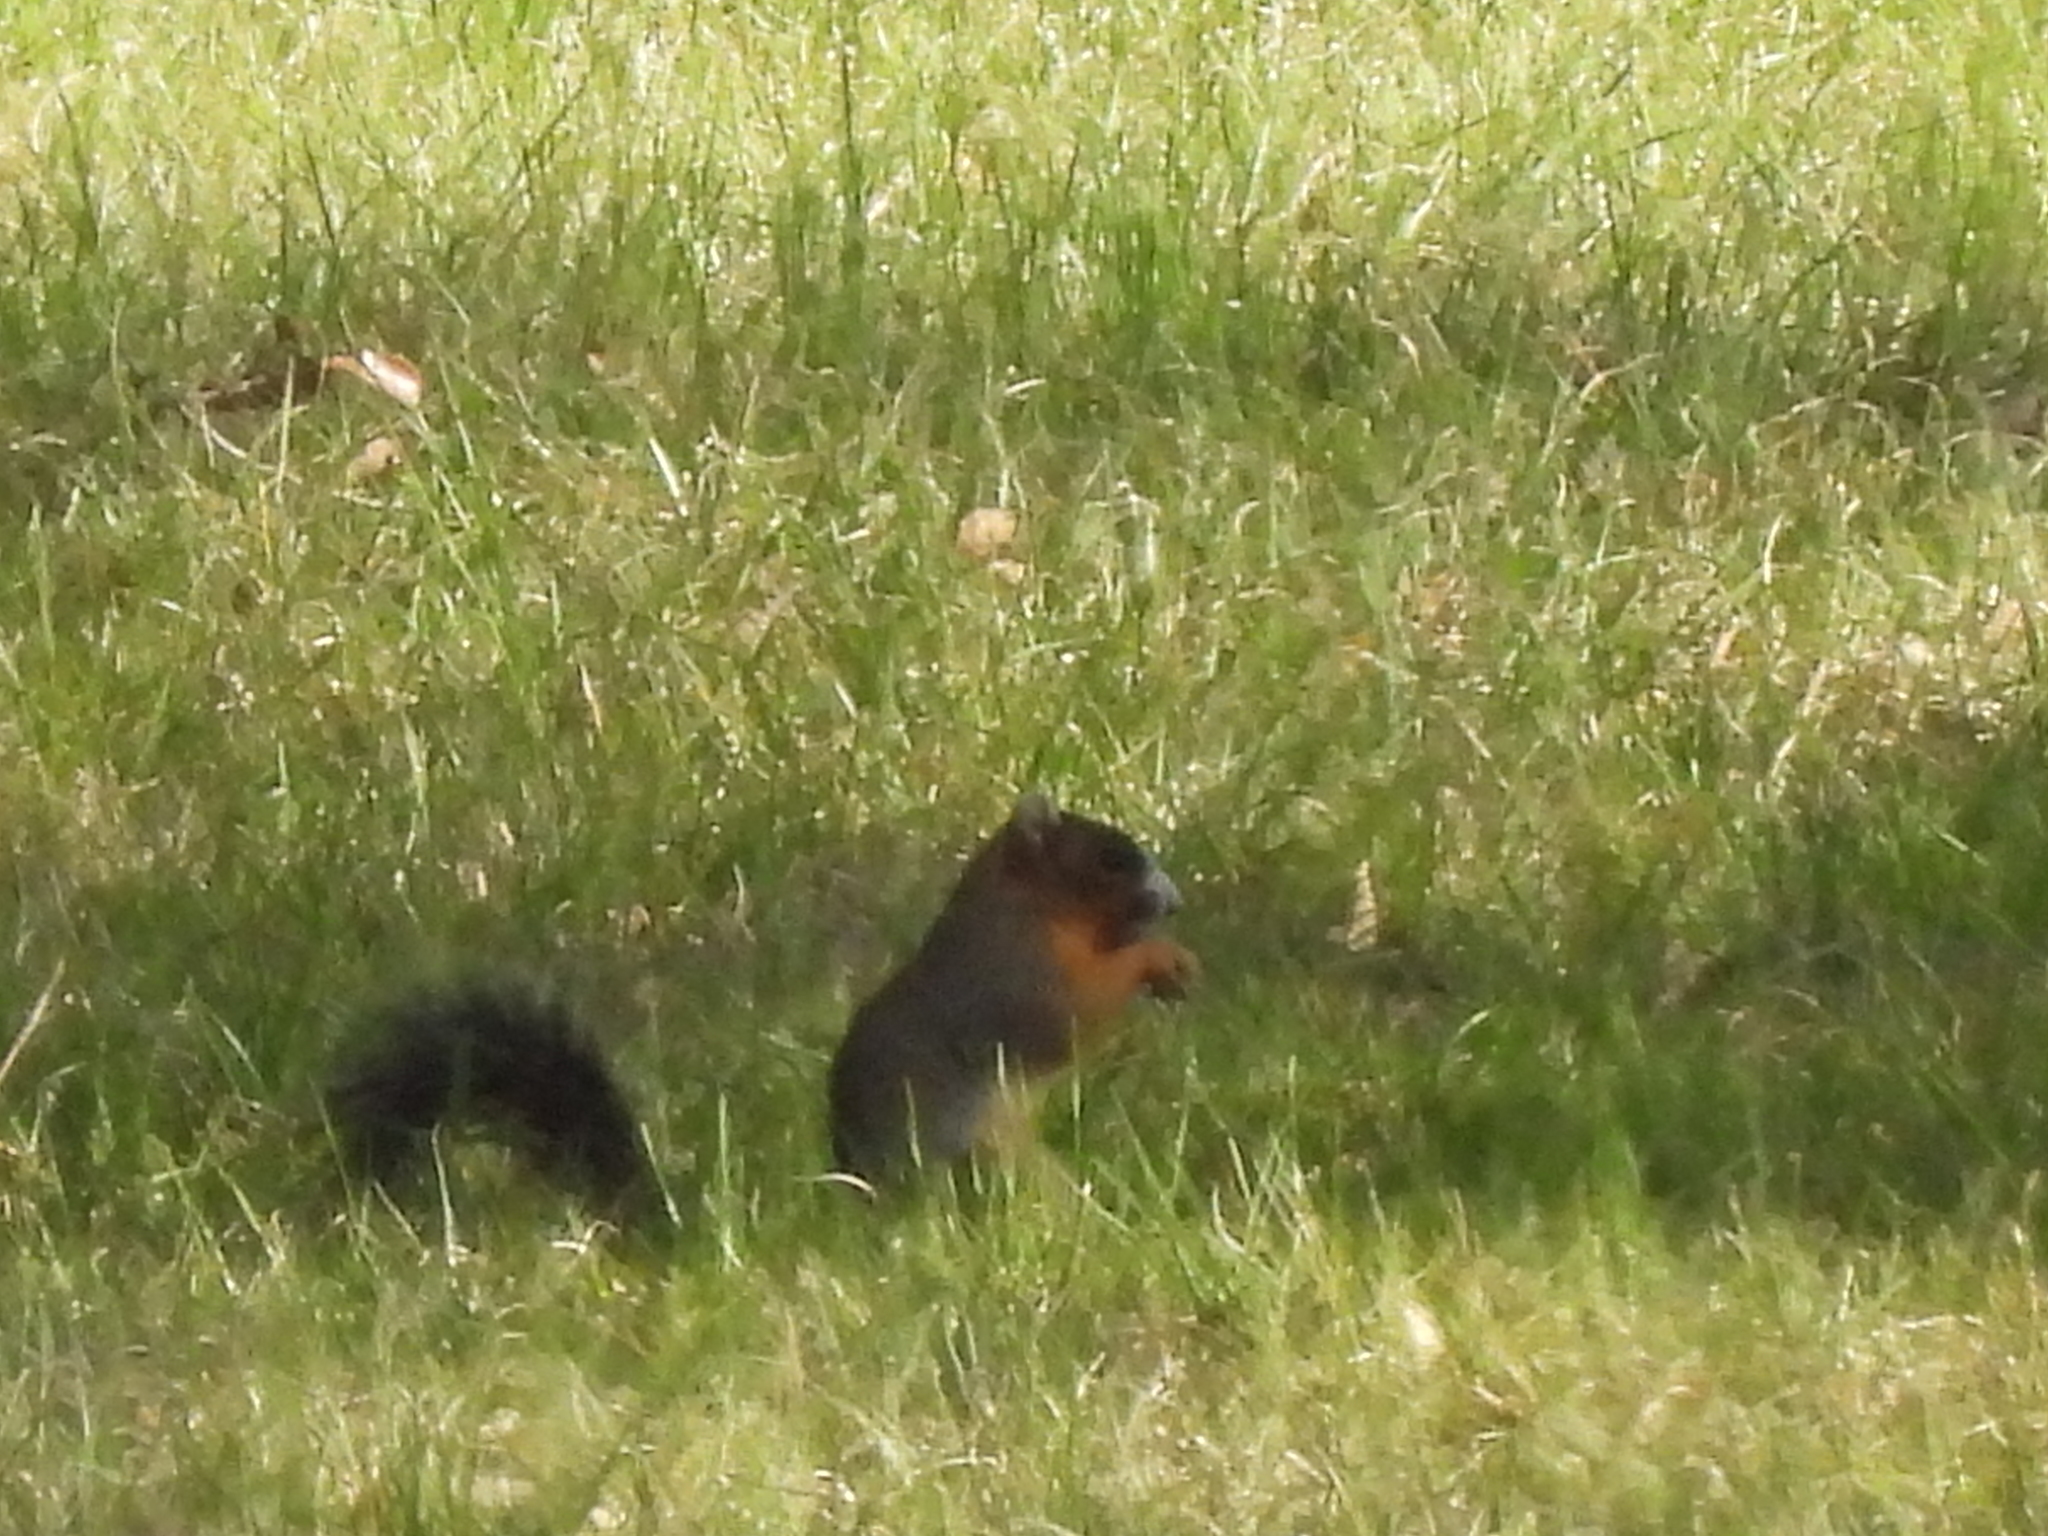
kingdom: Animalia
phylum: Chordata
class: Mammalia
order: Rodentia
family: Sciuridae
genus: Sciurus
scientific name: Sciurus niger
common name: Fox squirrel
